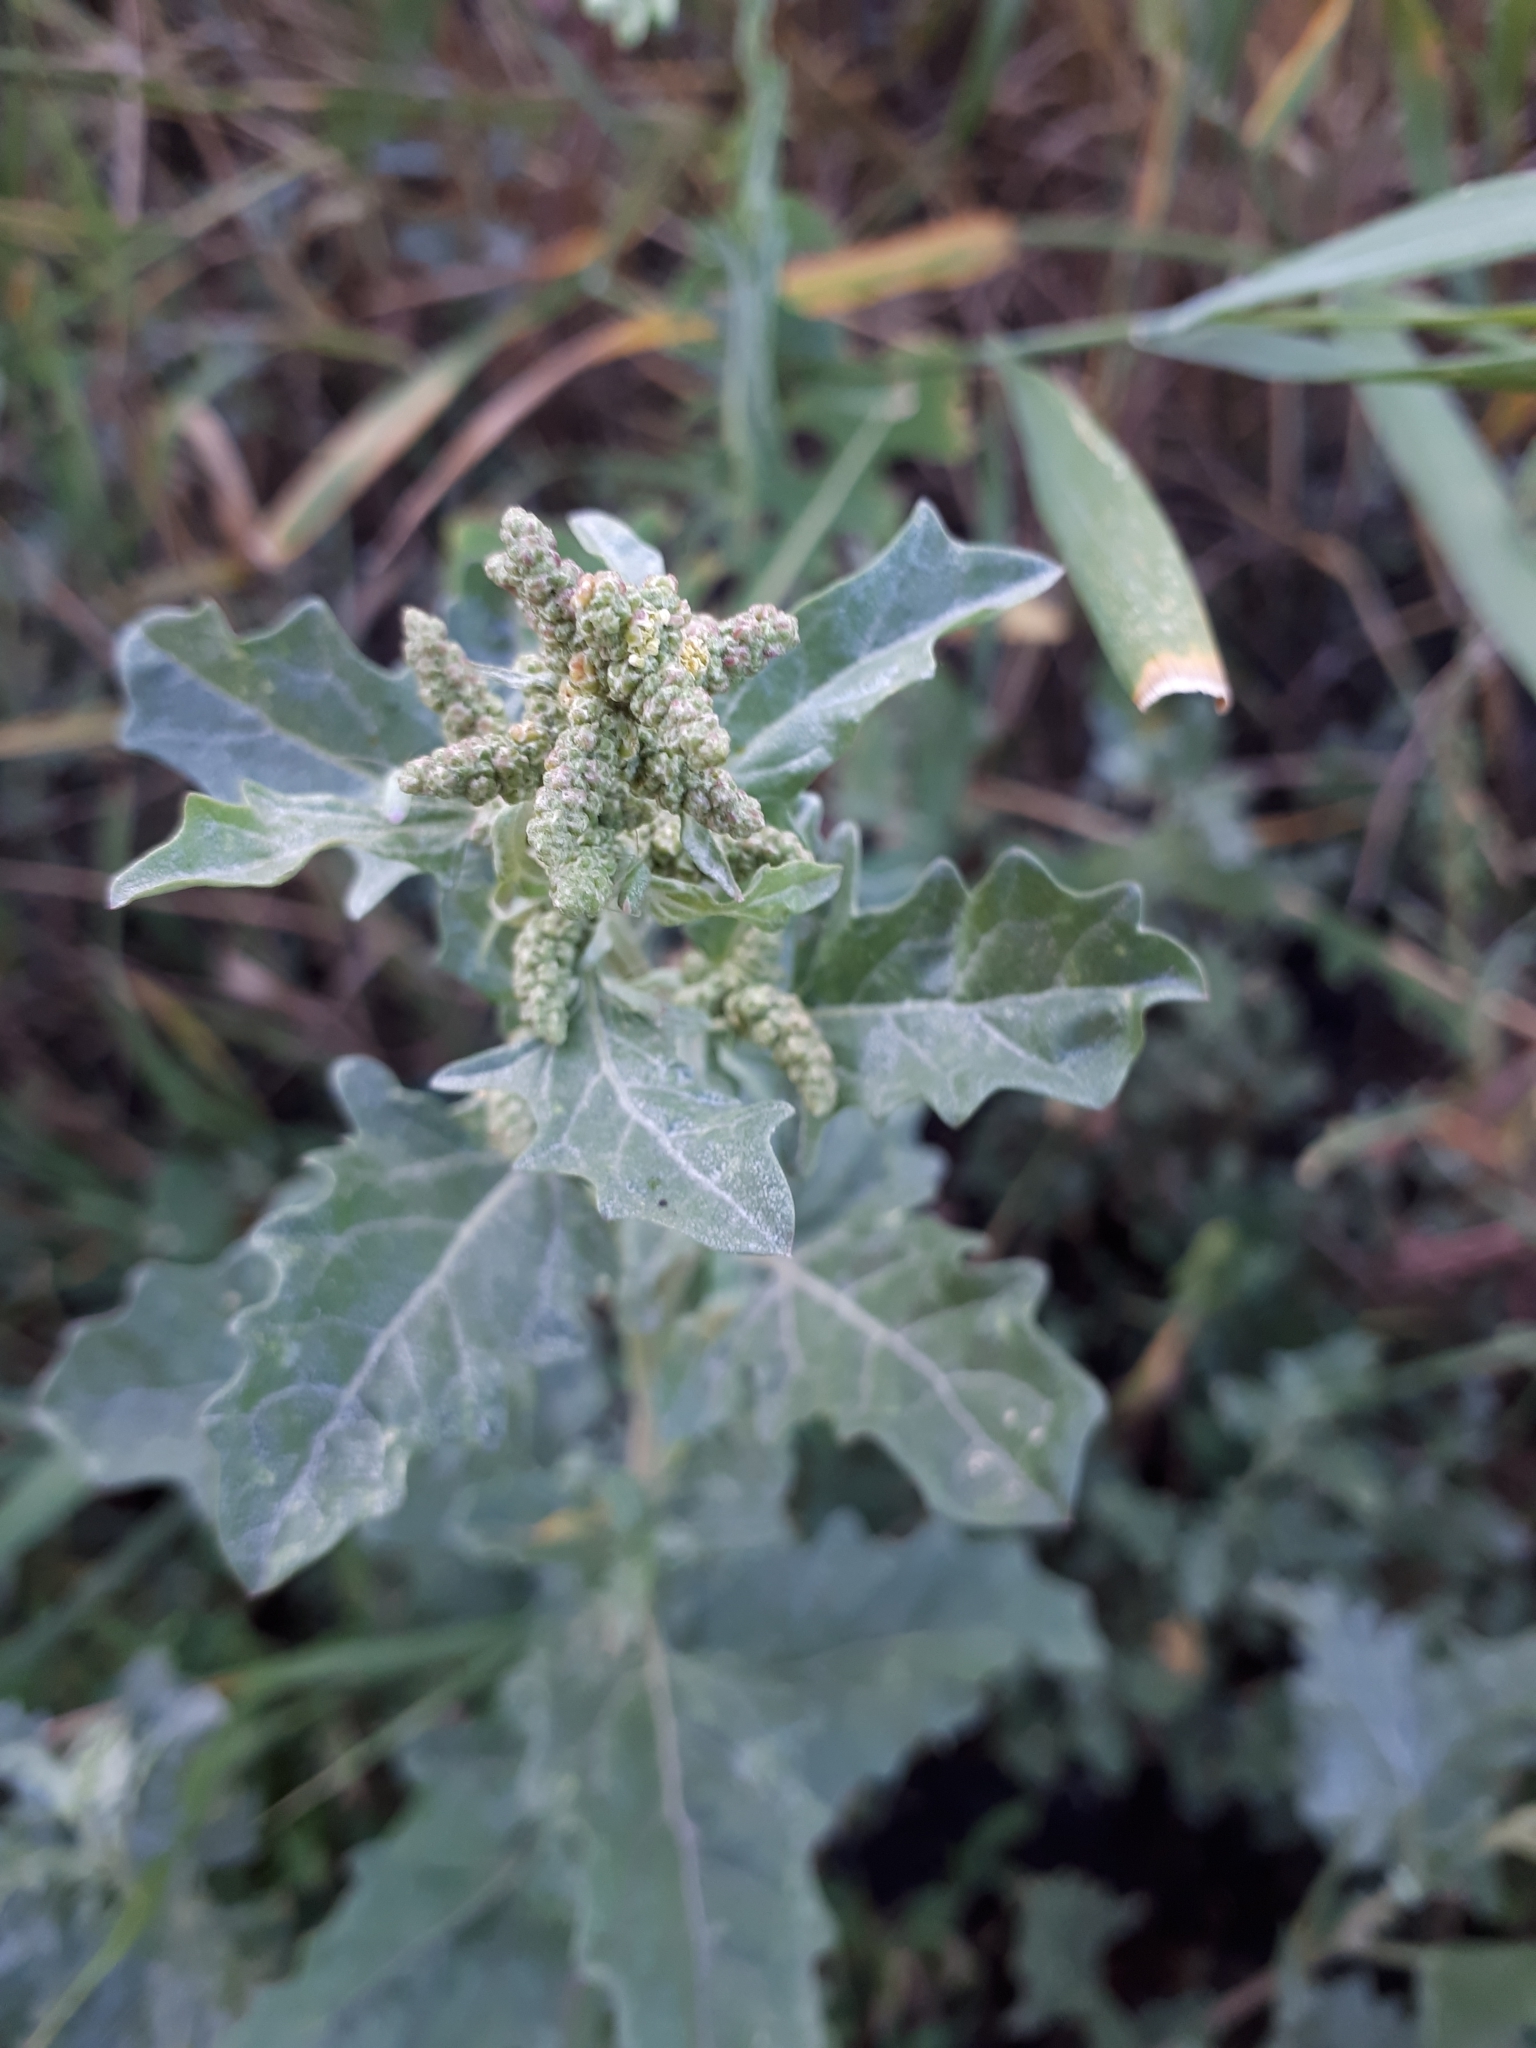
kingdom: Plantae
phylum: Tracheophyta
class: Magnoliopsida
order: Caryophyllales
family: Amaranthaceae
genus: Atriplex
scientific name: Atriplex tatarica
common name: Tatarian orache
